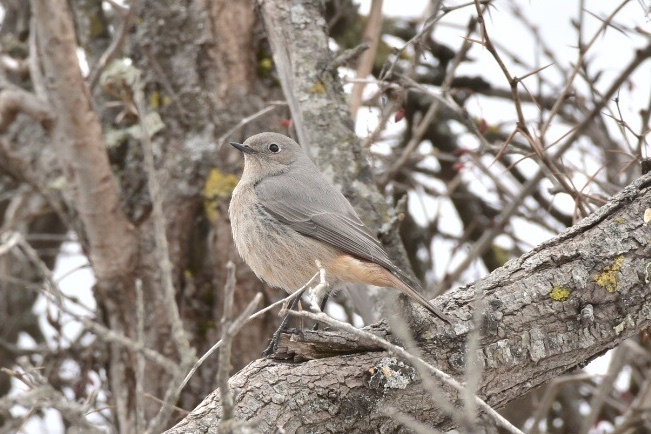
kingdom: Animalia
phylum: Chordata
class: Aves
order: Passeriformes
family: Muscicapidae
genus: Phoenicurus
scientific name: Phoenicurus erythrogastrus
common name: Güldenstädt's redstart
